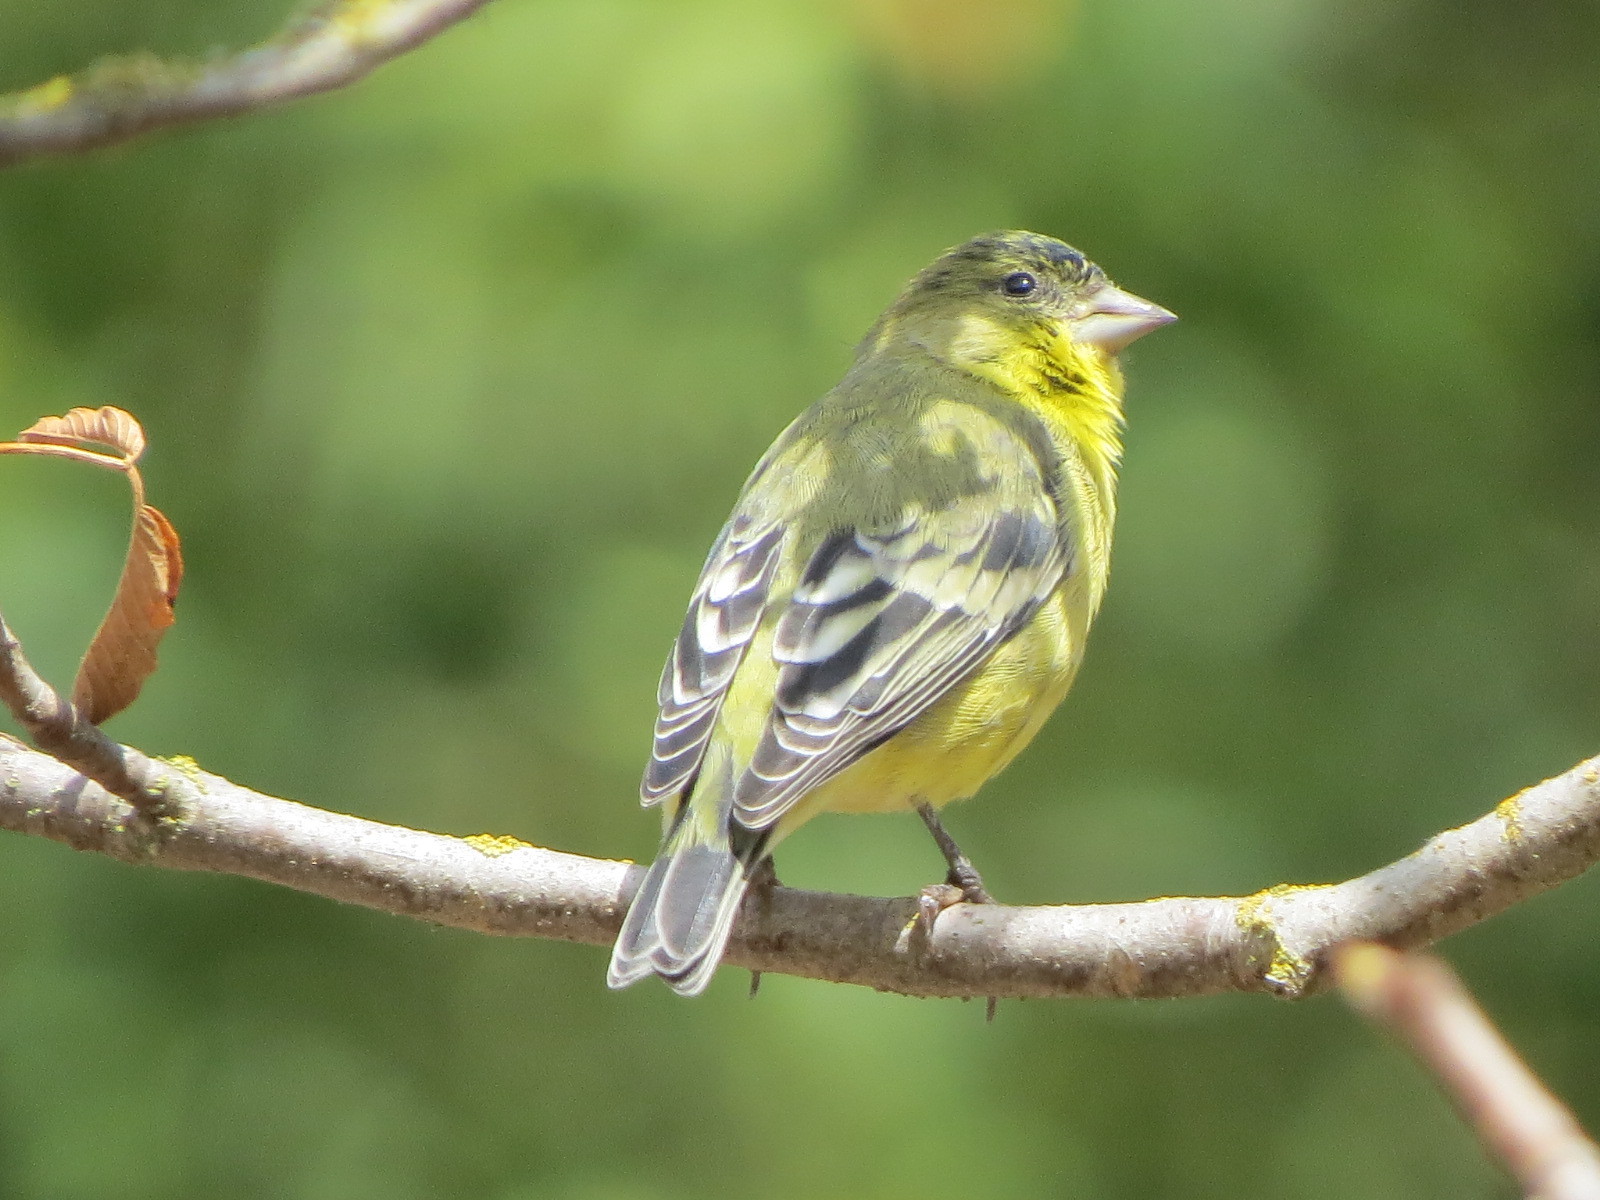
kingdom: Animalia
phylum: Chordata
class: Aves
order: Passeriformes
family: Fringillidae
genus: Spinus
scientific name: Spinus psaltria
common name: Lesser goldfinch
